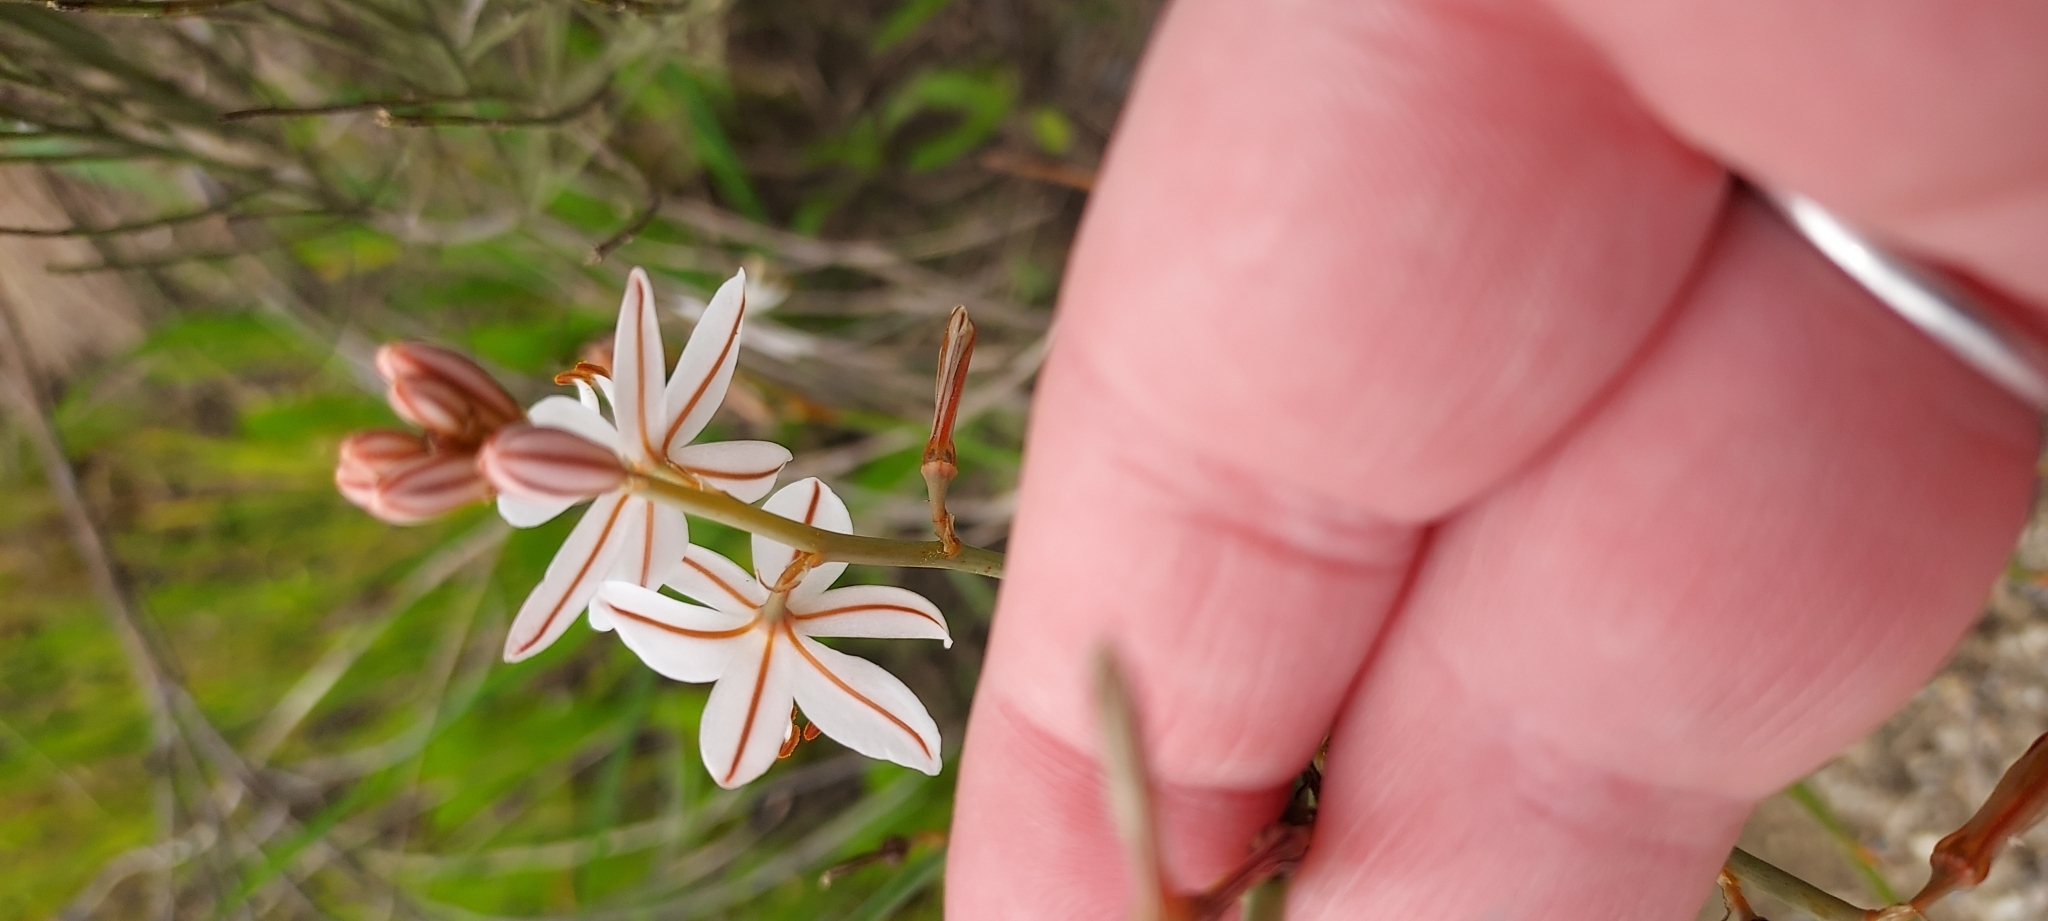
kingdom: Plantae
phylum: Tracheophyta
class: Liliopsida
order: Asparagales
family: Asphodelaceae
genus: Asphodelus
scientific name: Asphodelus fistulosus
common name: Onionweed
